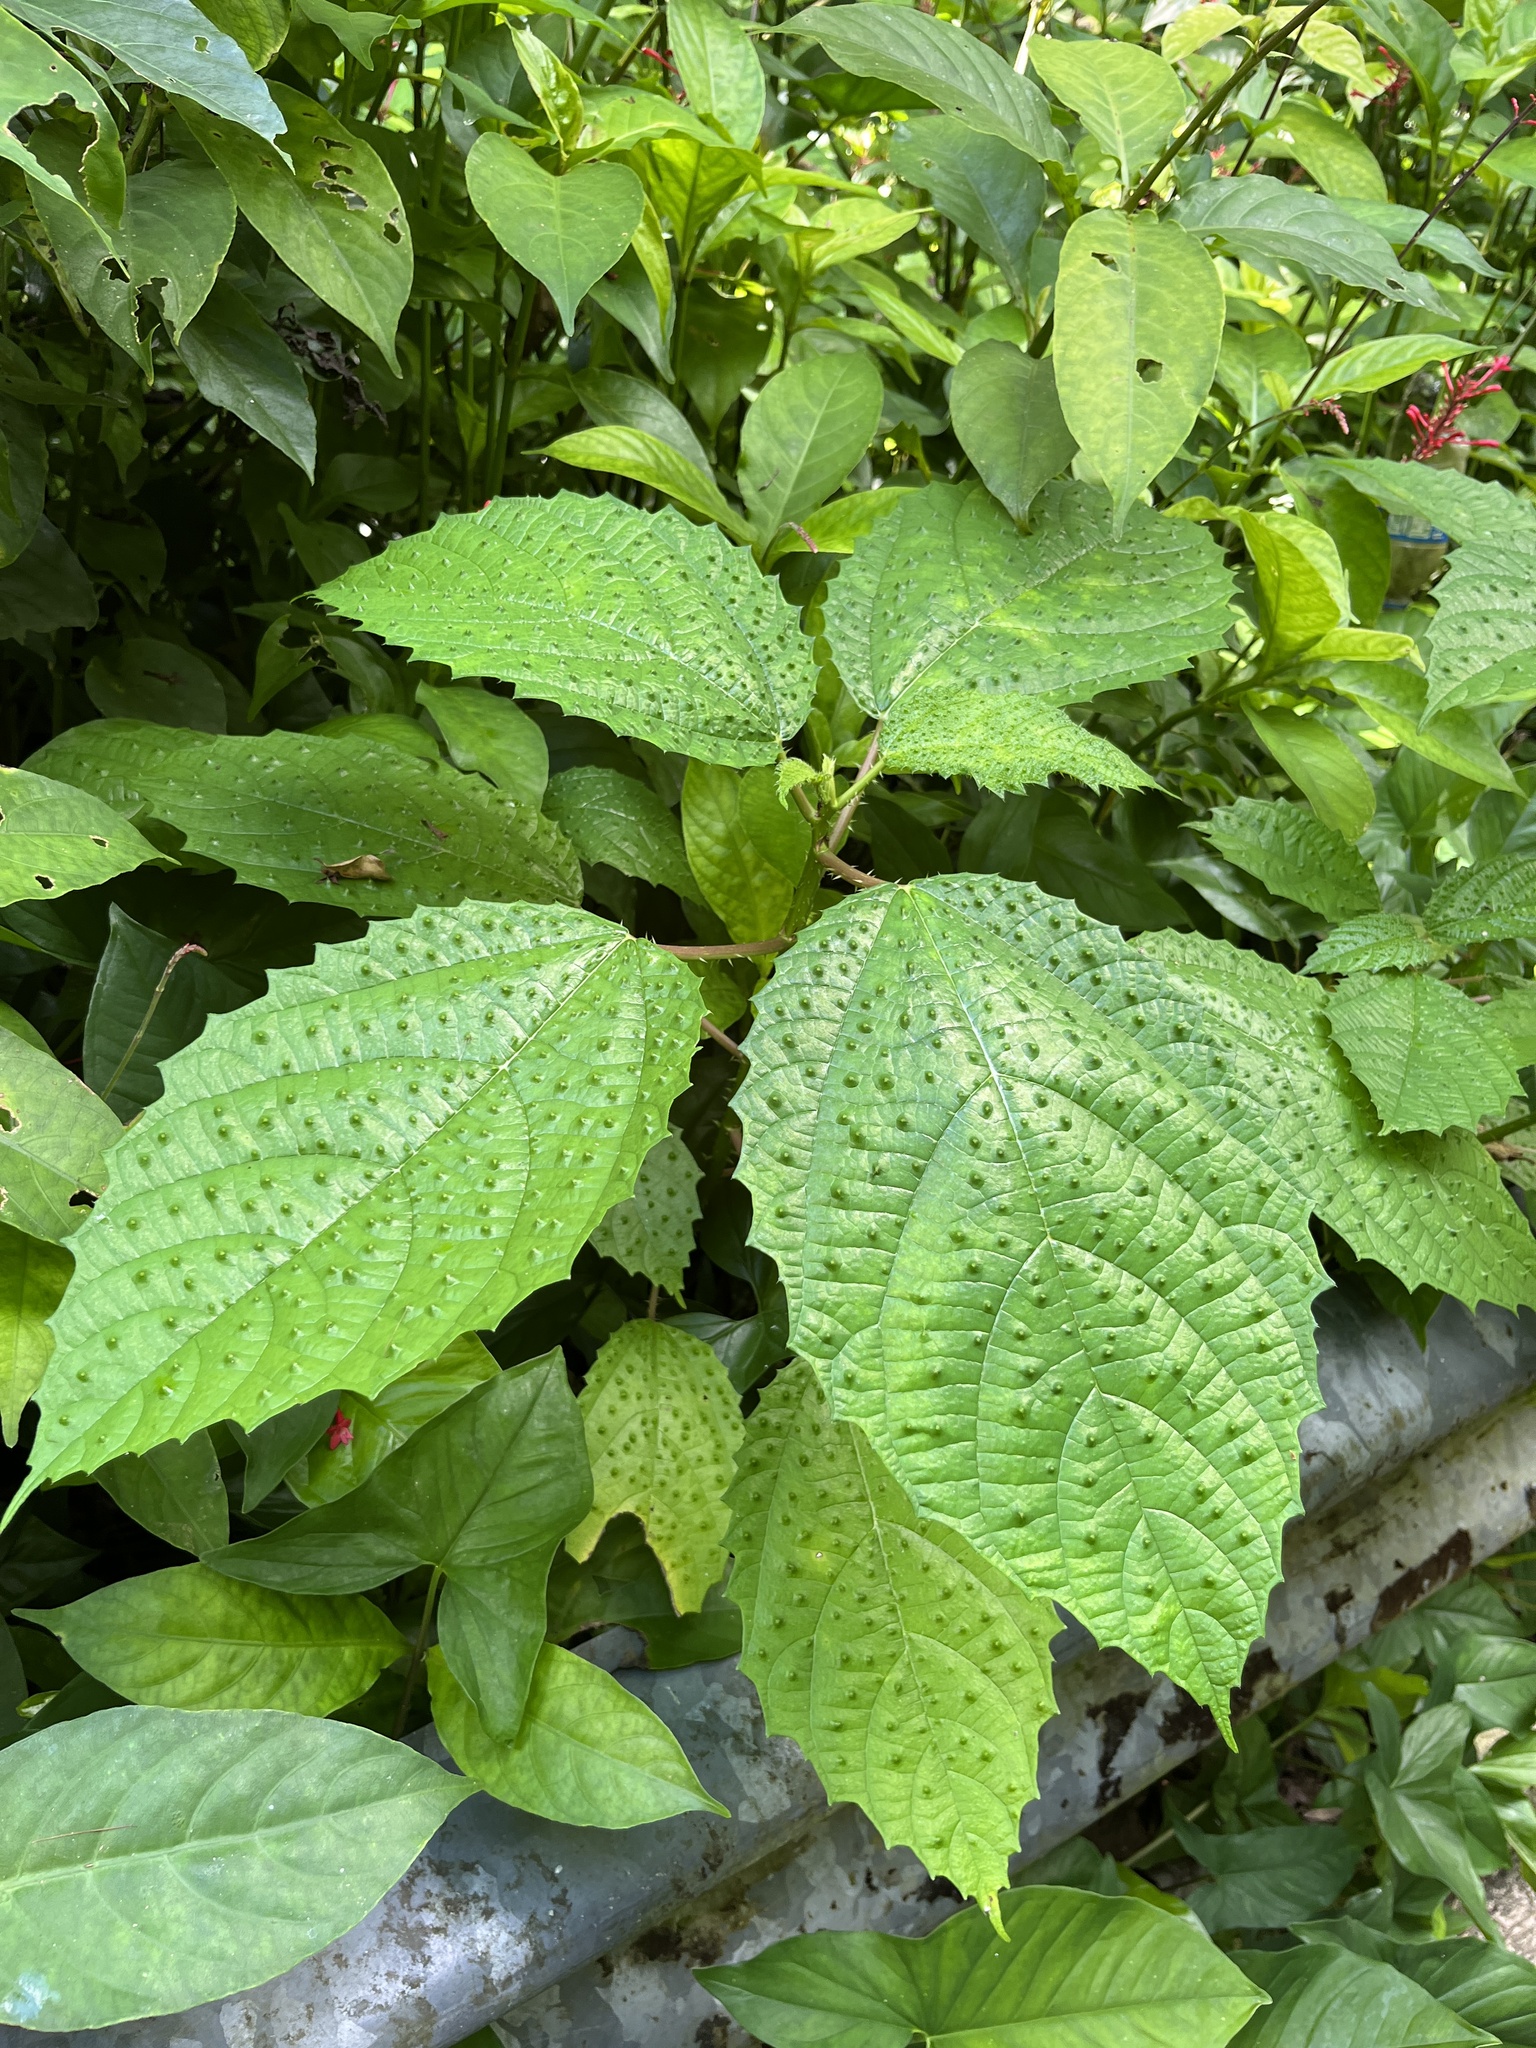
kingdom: Plantae
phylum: Tracheophyta
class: Magnoliopsida
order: Rosales
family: Urticaceae
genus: Urera
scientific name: Urera baccifera
